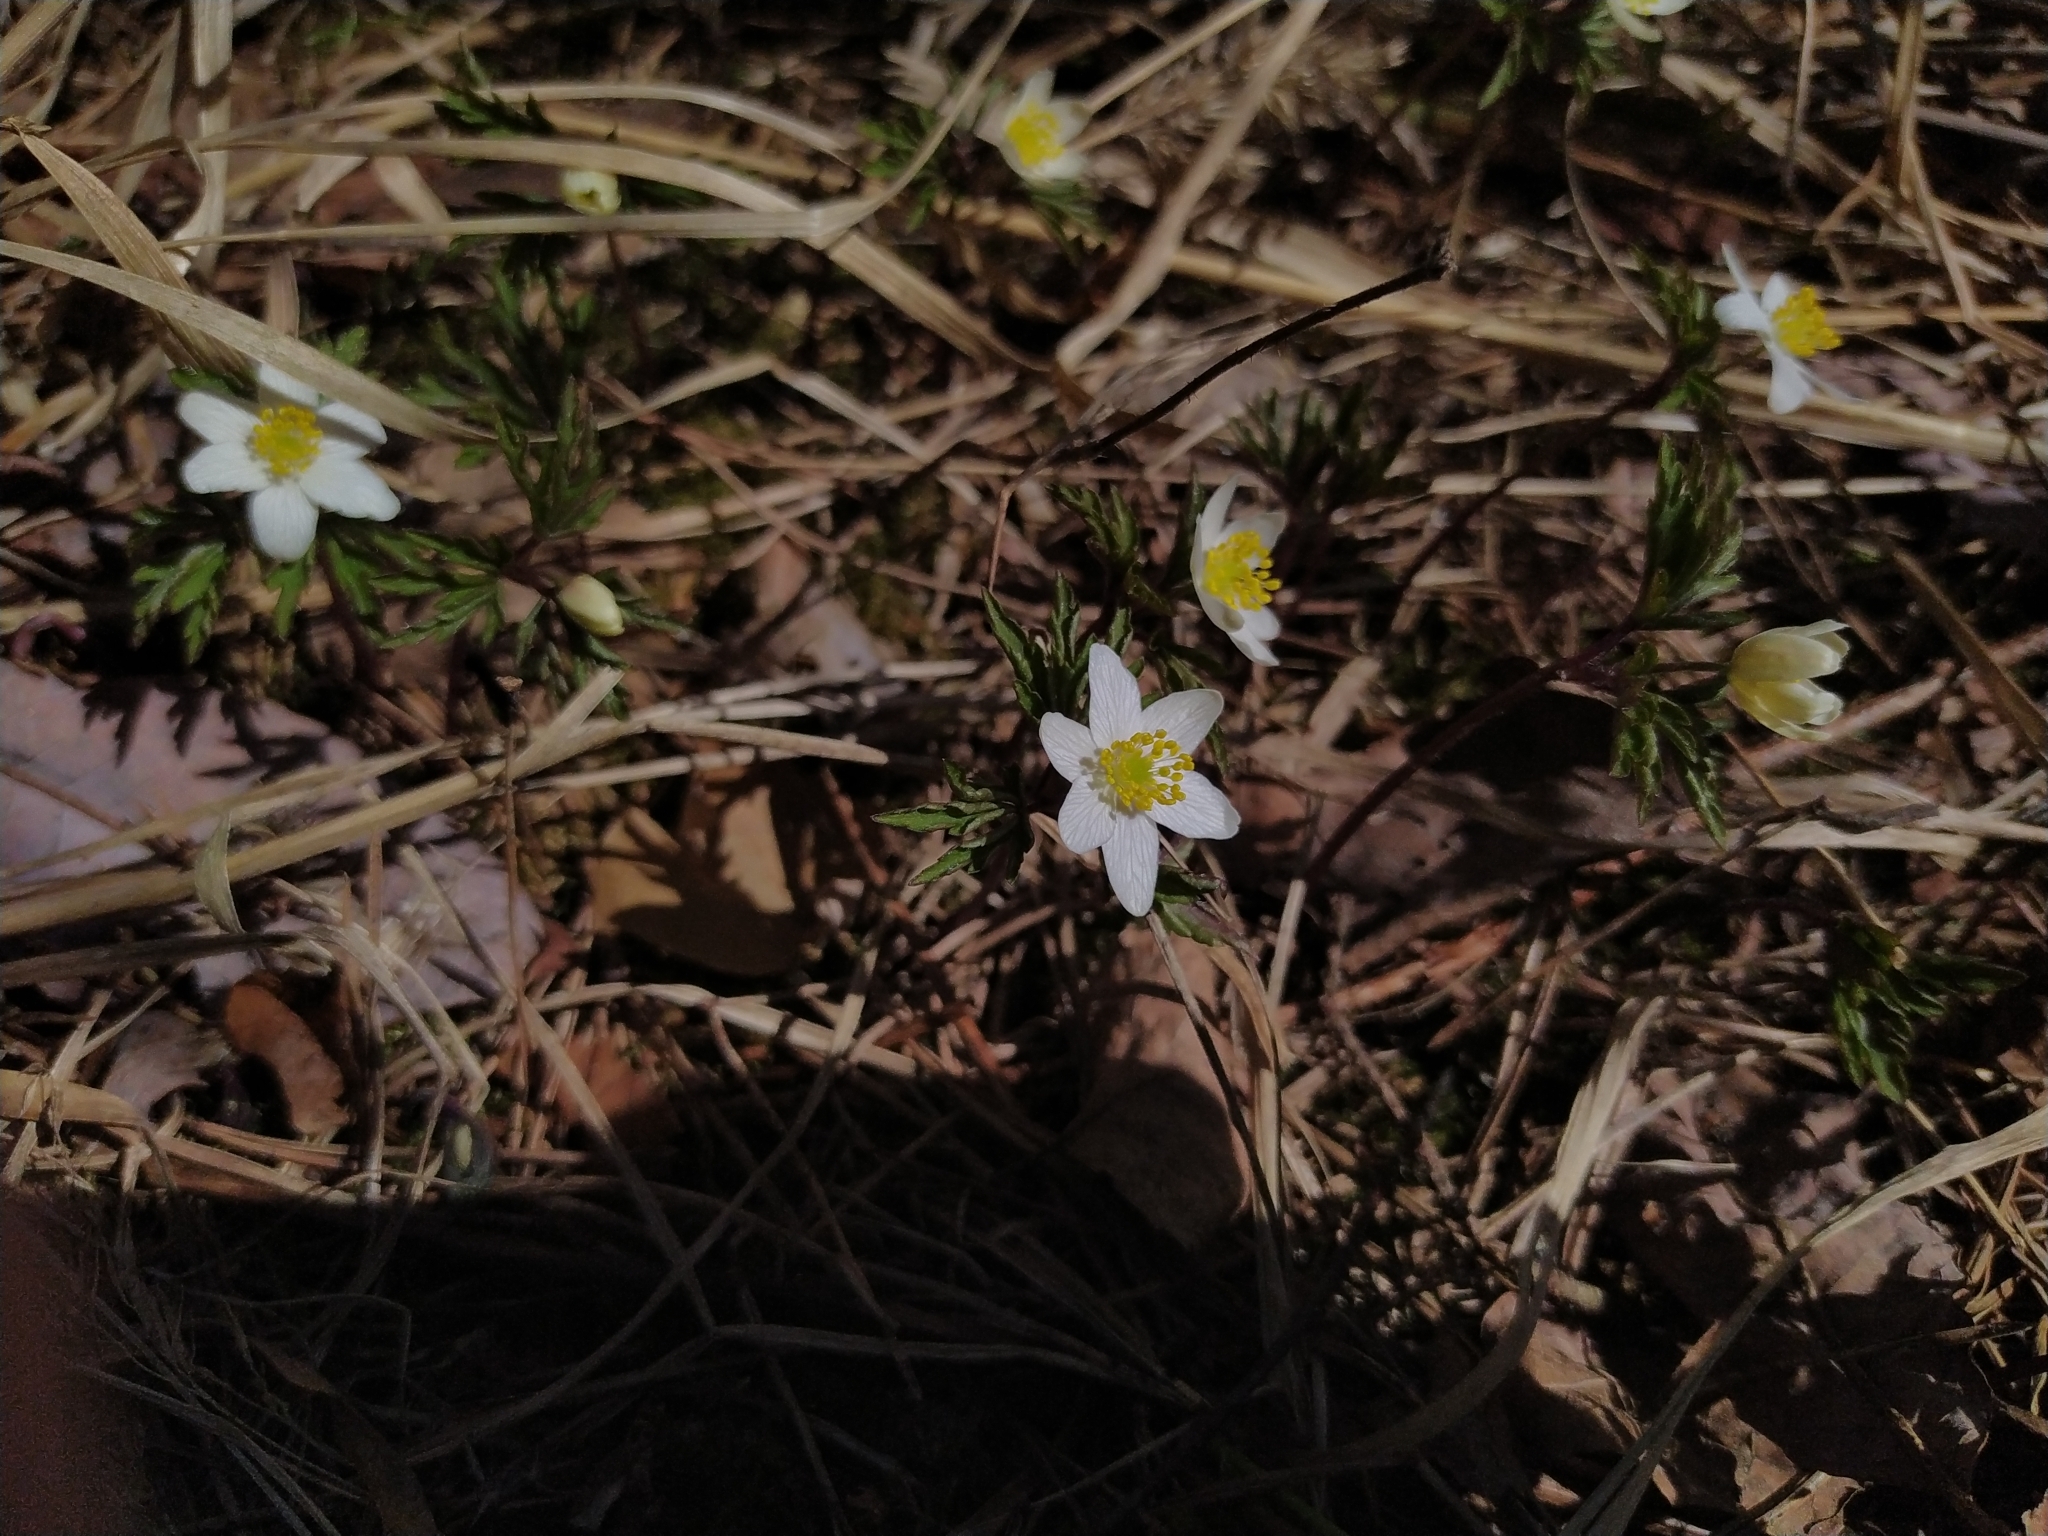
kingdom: Plantae
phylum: Tracheophyta
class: Magnoliopsida
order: Ranunculales
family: Ranunculaceae
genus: Anemone
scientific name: Anemone nemorosa
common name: Wood anemone
